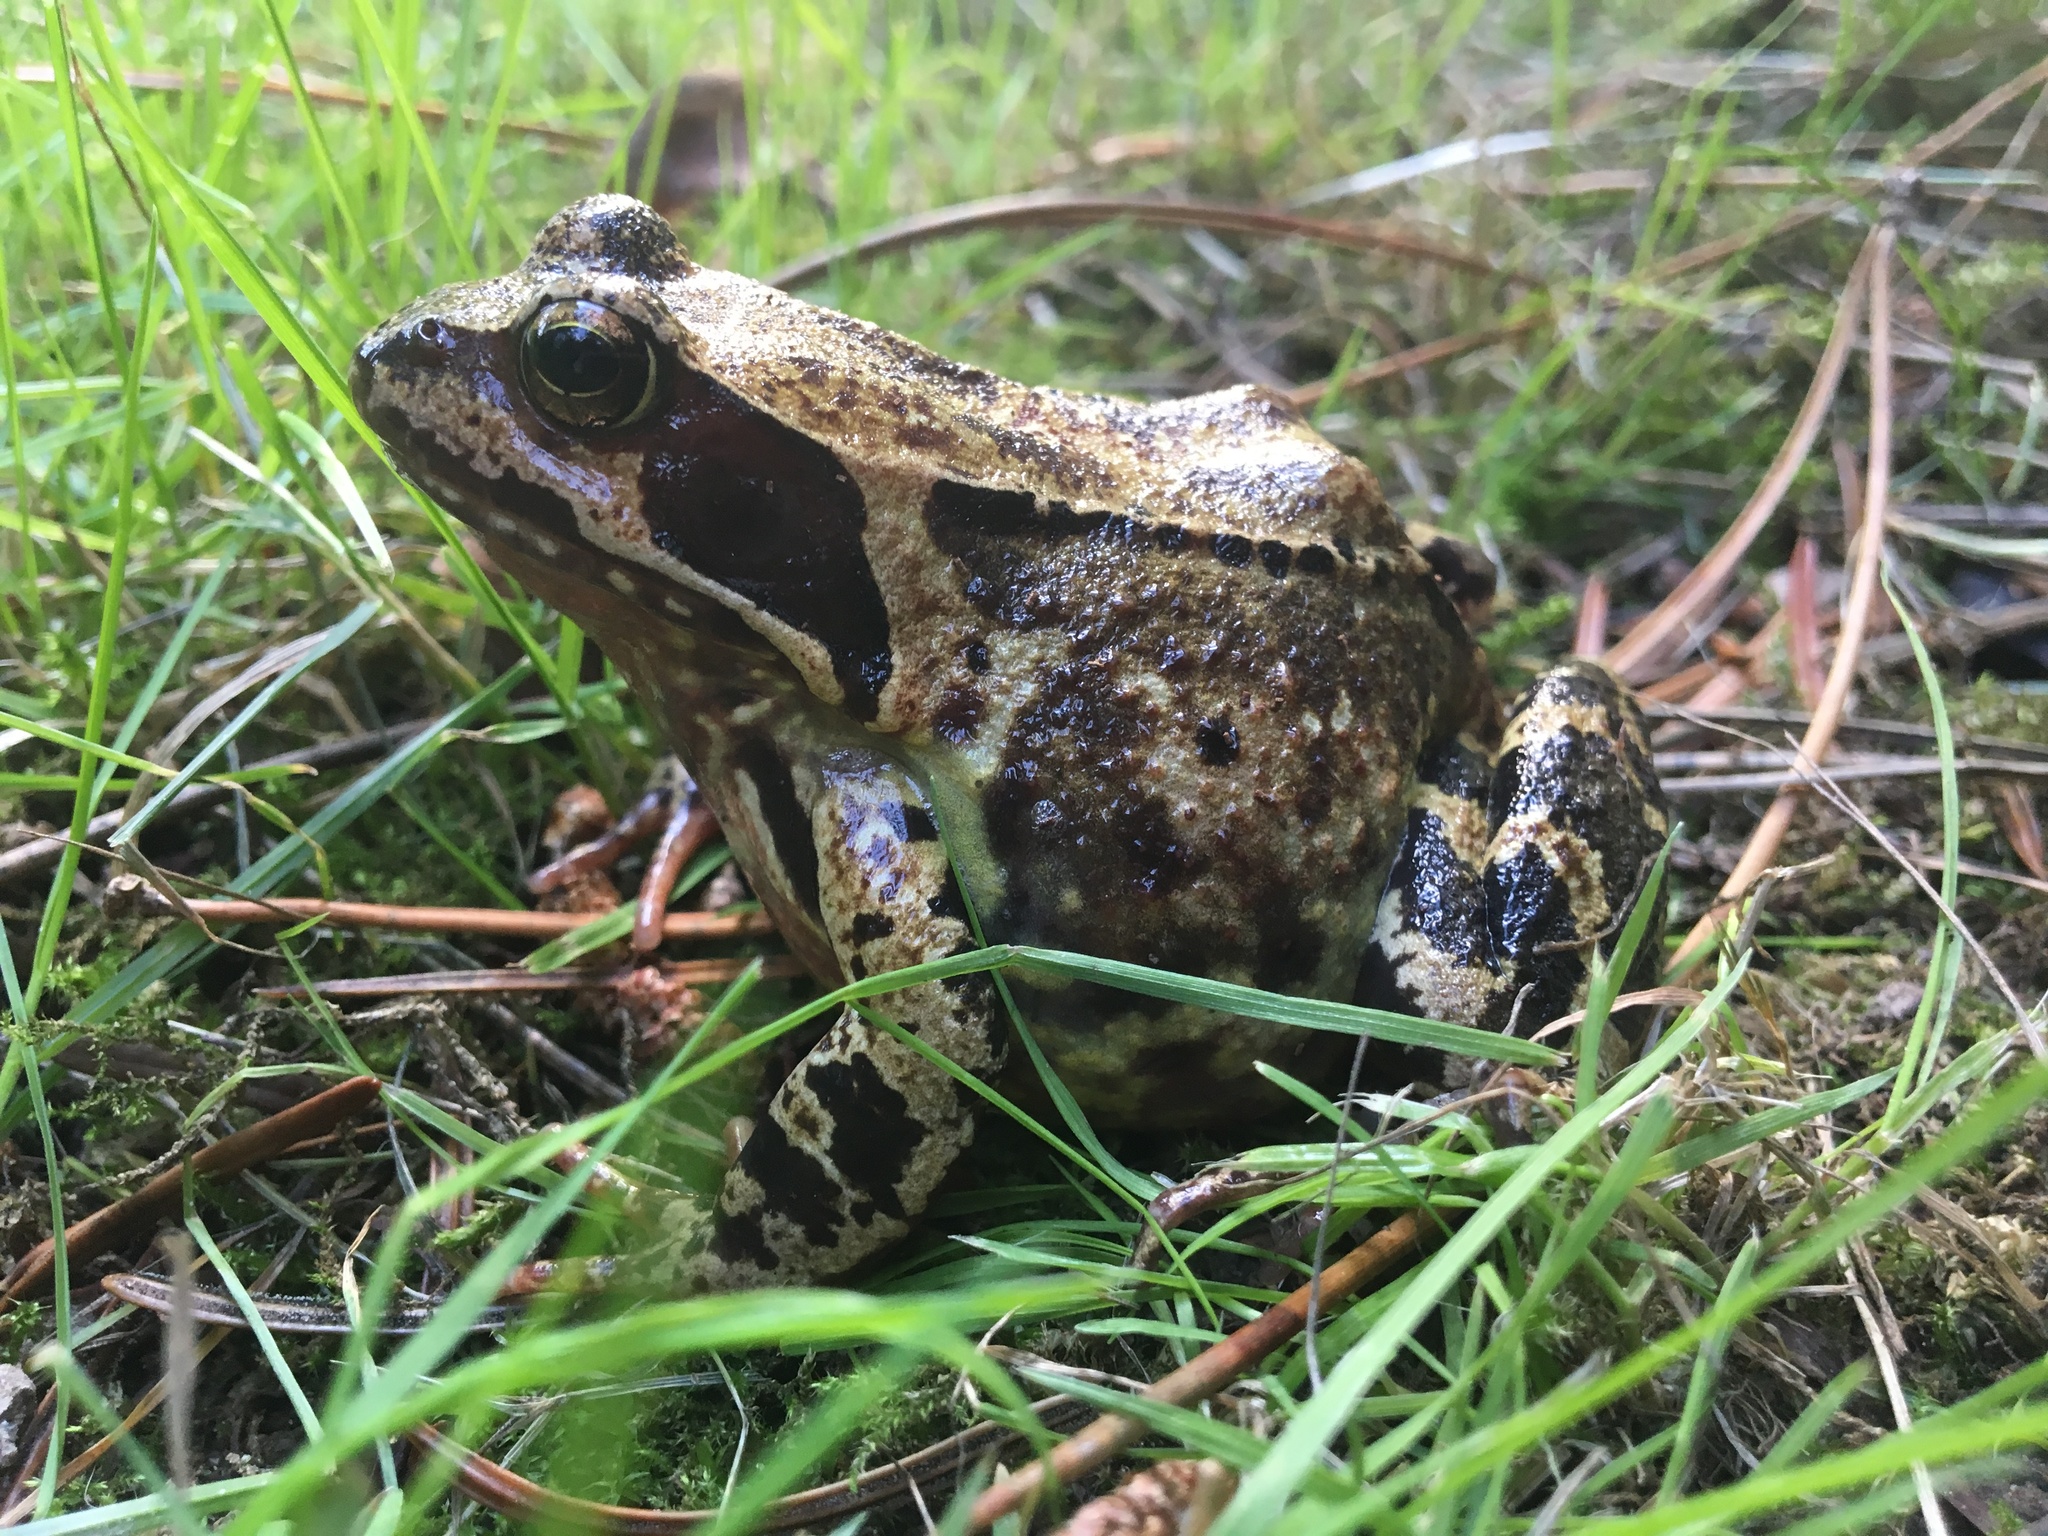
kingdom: Animalia
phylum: Chordata
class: Amphibia
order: Anura
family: Ranidae
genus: Rana
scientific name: Rana temporaria
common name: Common frog
